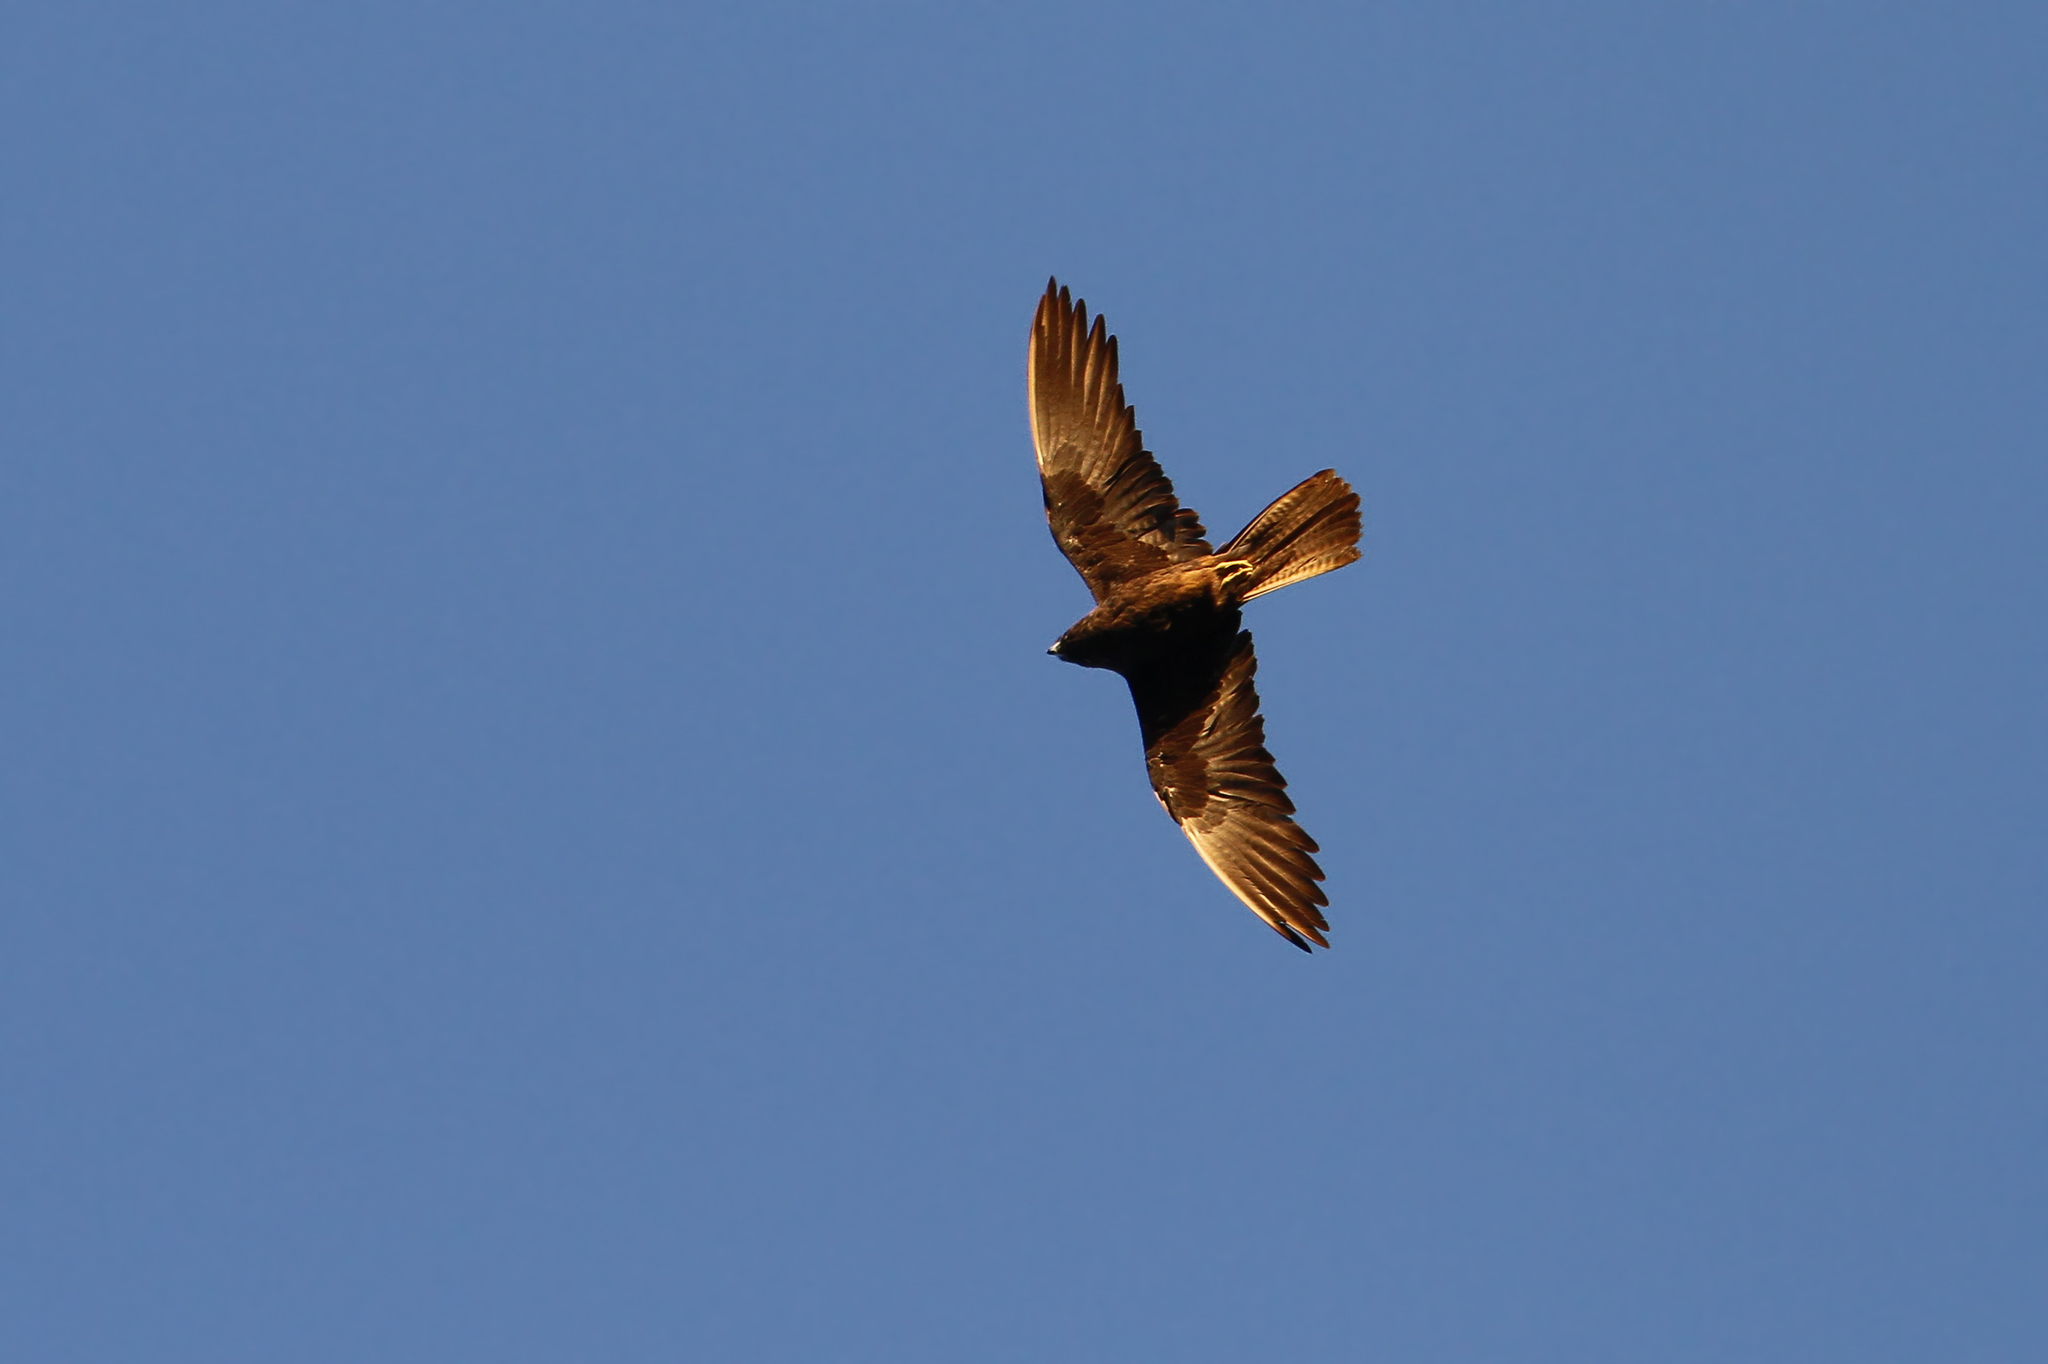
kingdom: Animalia
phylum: Chordata
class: Aves
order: Falconiformes
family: Falconidae
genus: Falco
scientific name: Falco eleonorae
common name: Eleonora's falcon
